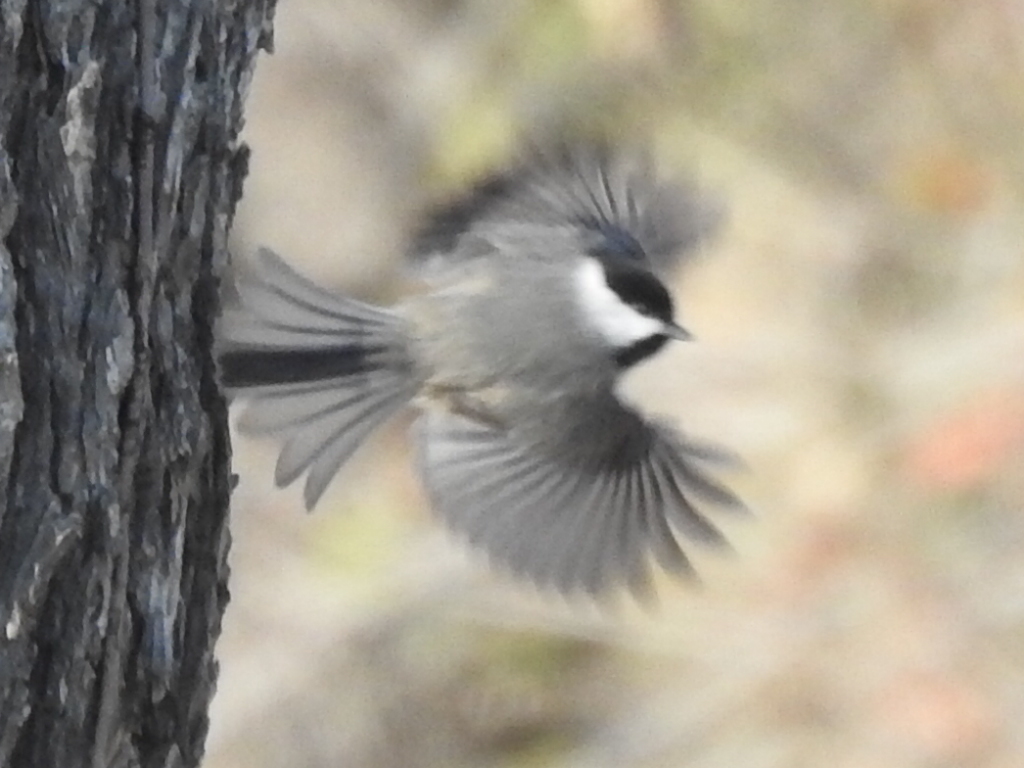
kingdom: Animalia
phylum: Chordata
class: Aves
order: Passeriformes
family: Paridae
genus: Poecile
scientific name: Poecile carolinensis
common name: Carolina chickadee
